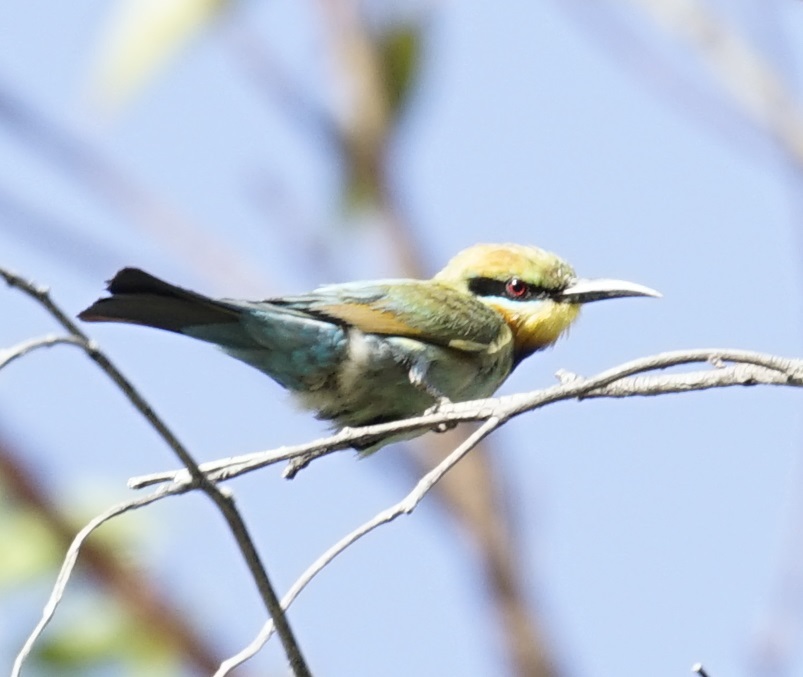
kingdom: Animalia
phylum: Chordata
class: Aves
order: Coraciiformes
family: Meropidae
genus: Merops
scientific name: Merops ornatus
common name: Rainbow bee-eater
